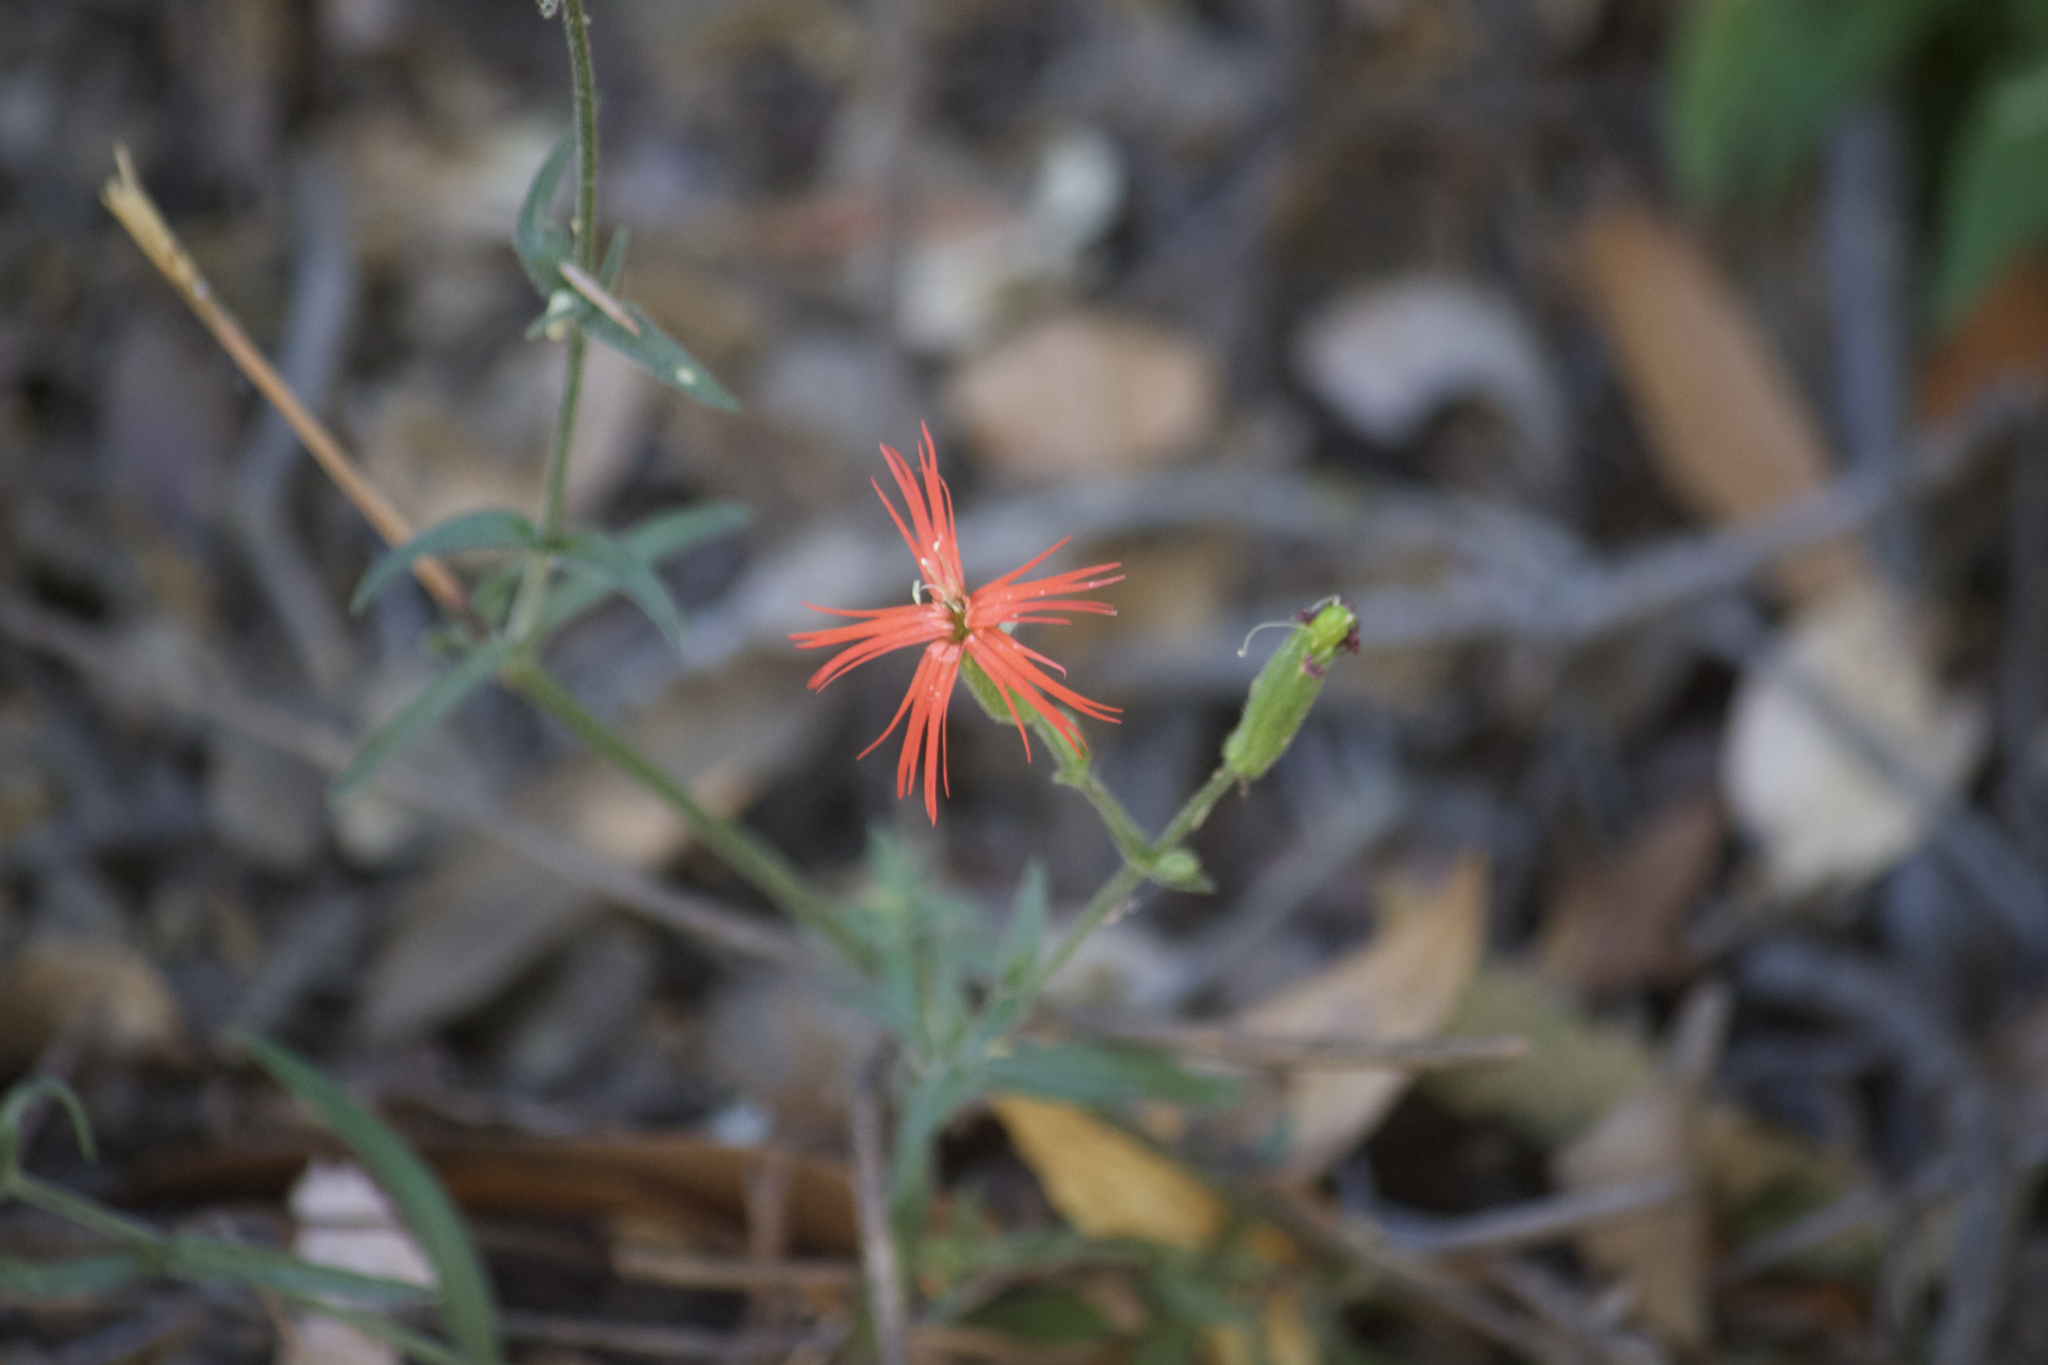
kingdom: Plantae
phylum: Tracheophyta
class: Magnoliopsida
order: Caryophyllales
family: Caryophyllaceae
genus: Silene
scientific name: Silene laciniata
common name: Indian-pink
